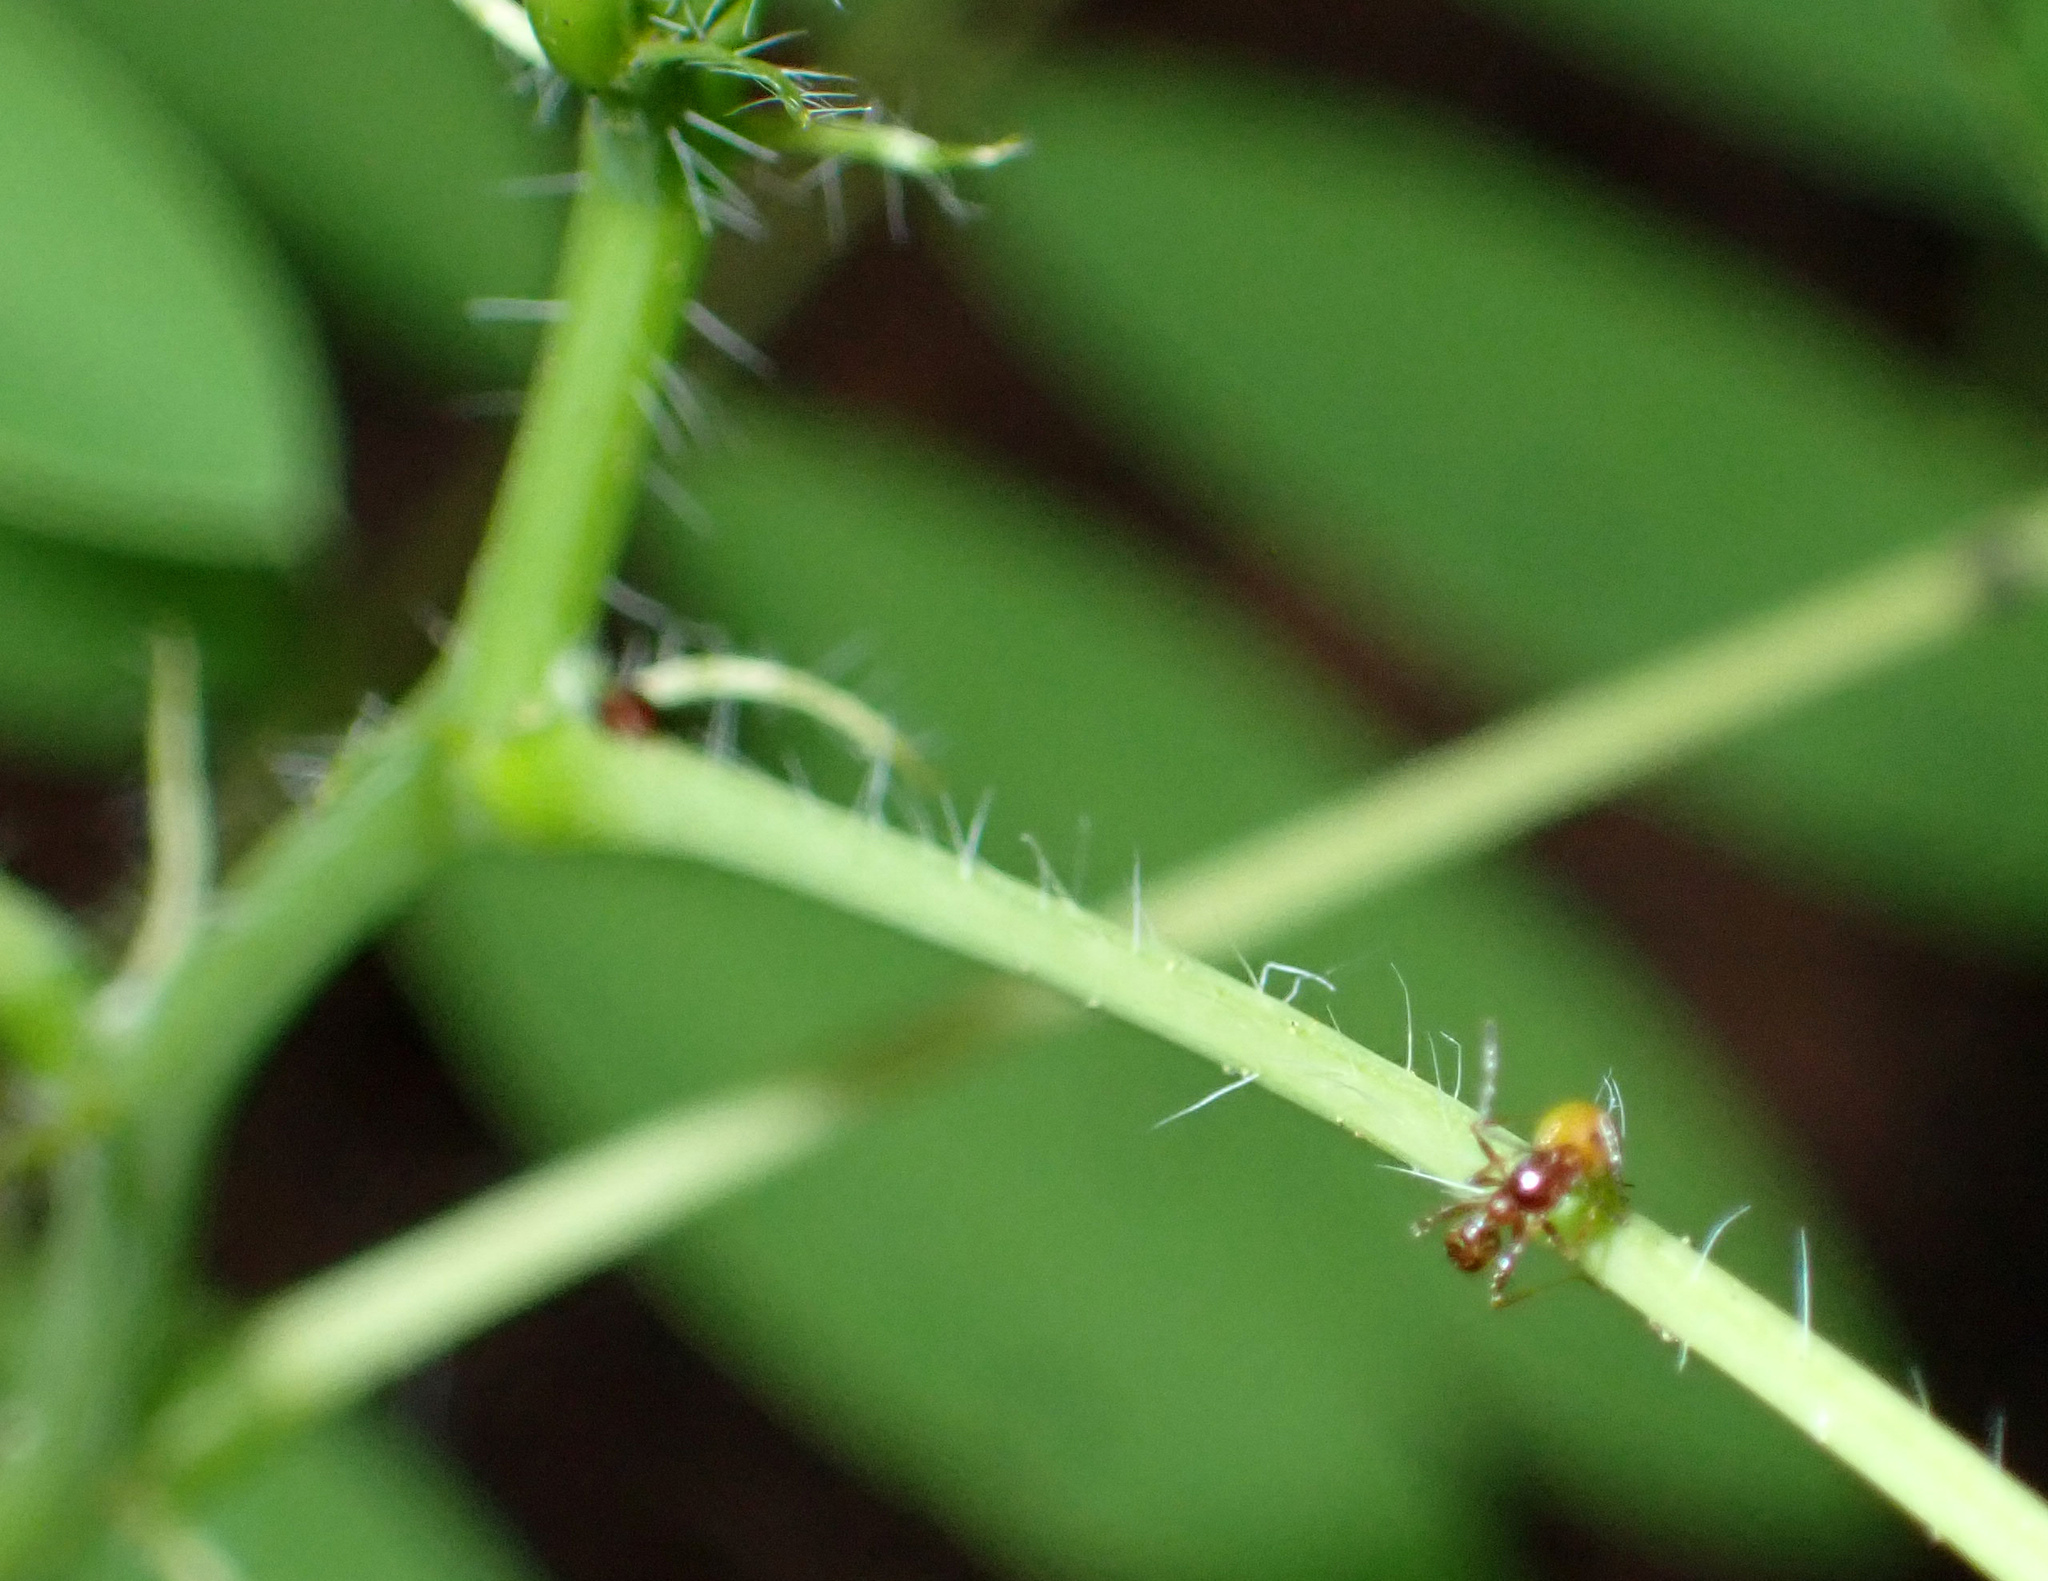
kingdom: Animalia
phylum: Arthropoda
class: Insecta
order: Hymenoptera
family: Formicidae
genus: Pheidole
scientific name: Pheidole dentata
